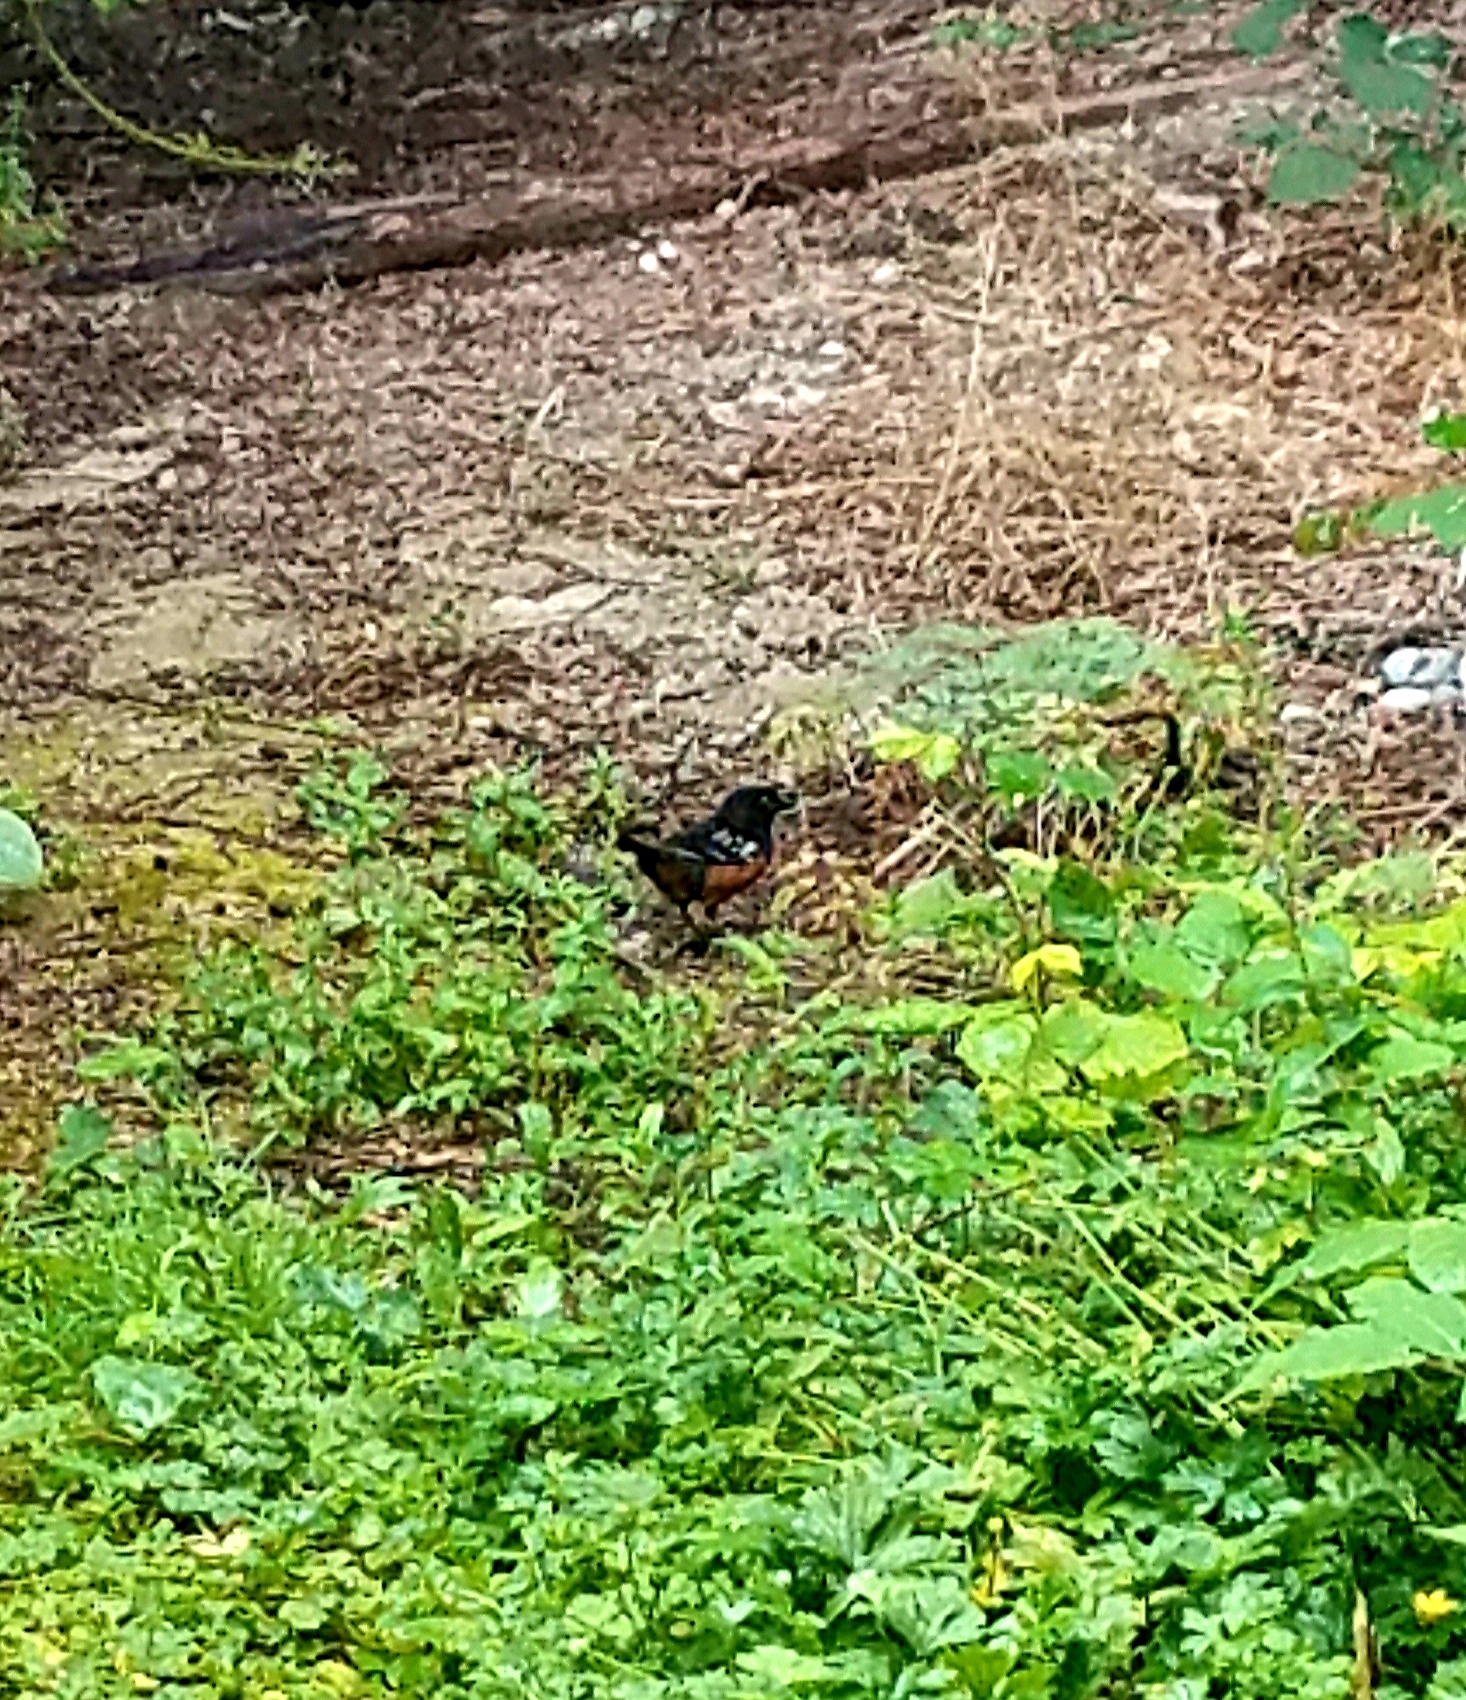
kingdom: Animalia
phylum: Chordata
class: Aves
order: Passeriformes
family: Passerellidae
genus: Pipilo
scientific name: Pipilo maculatus
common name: Spotted towhee
